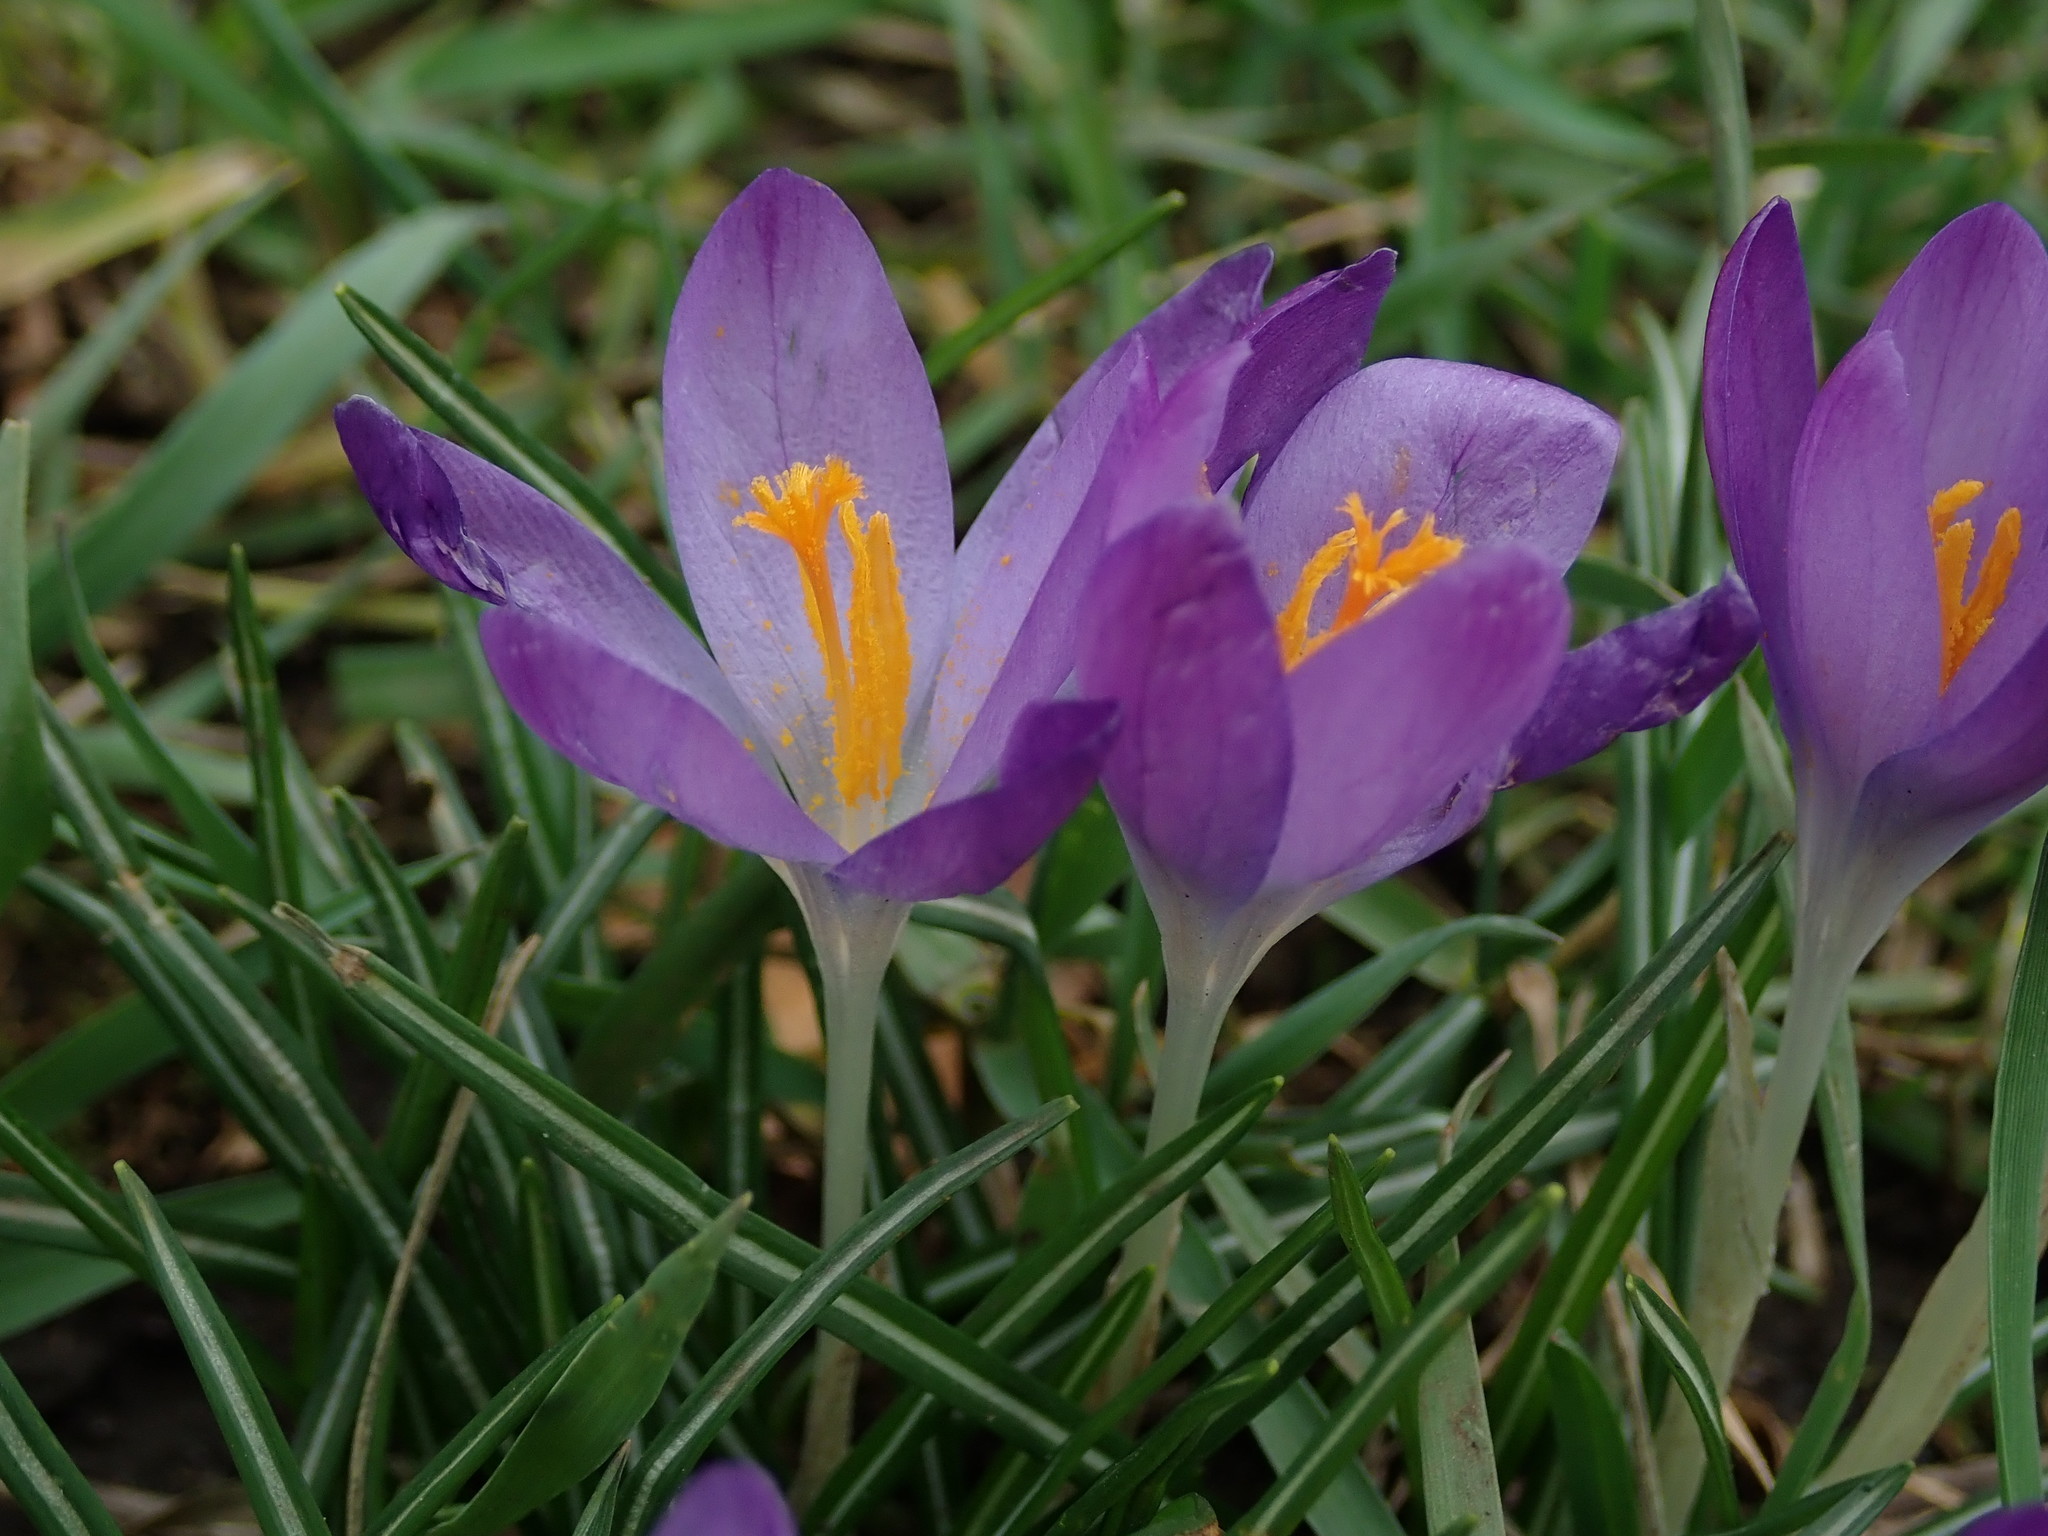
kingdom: Plantae
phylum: Tracheophyta
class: Liliopsida
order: Asparagales
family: Iridaceae
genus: Crocus
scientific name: Crocus tommasinianus
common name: Early crocus
